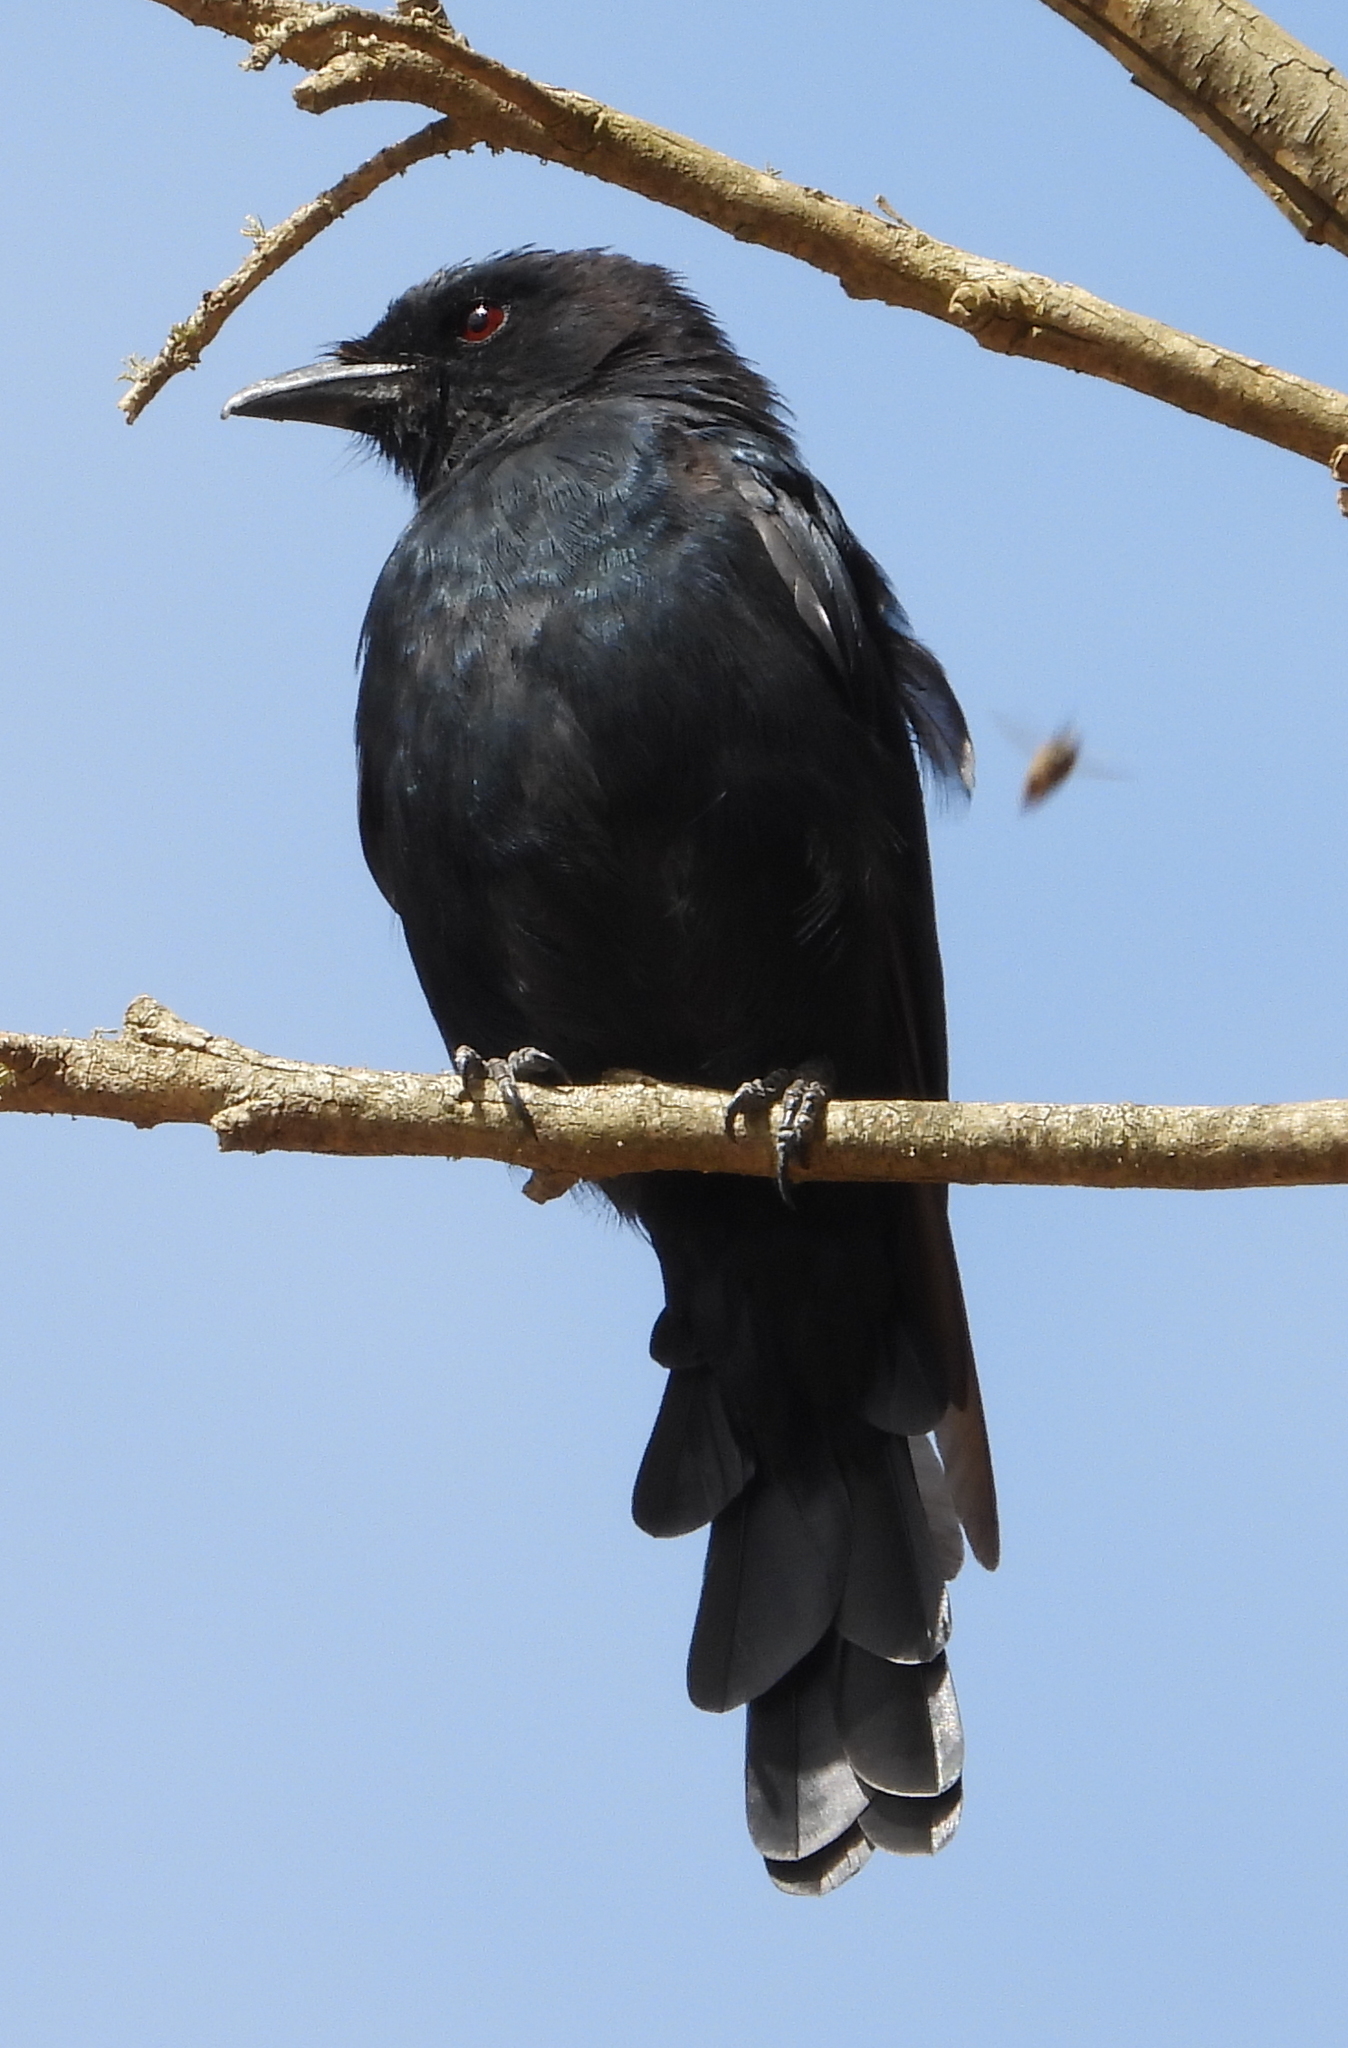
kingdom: Animalia
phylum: Chordata
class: Aves
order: Passeriformes
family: Dicruridae
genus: Dicrurus
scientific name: Dicrurus adsimilis
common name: Fork-tailed drongo
